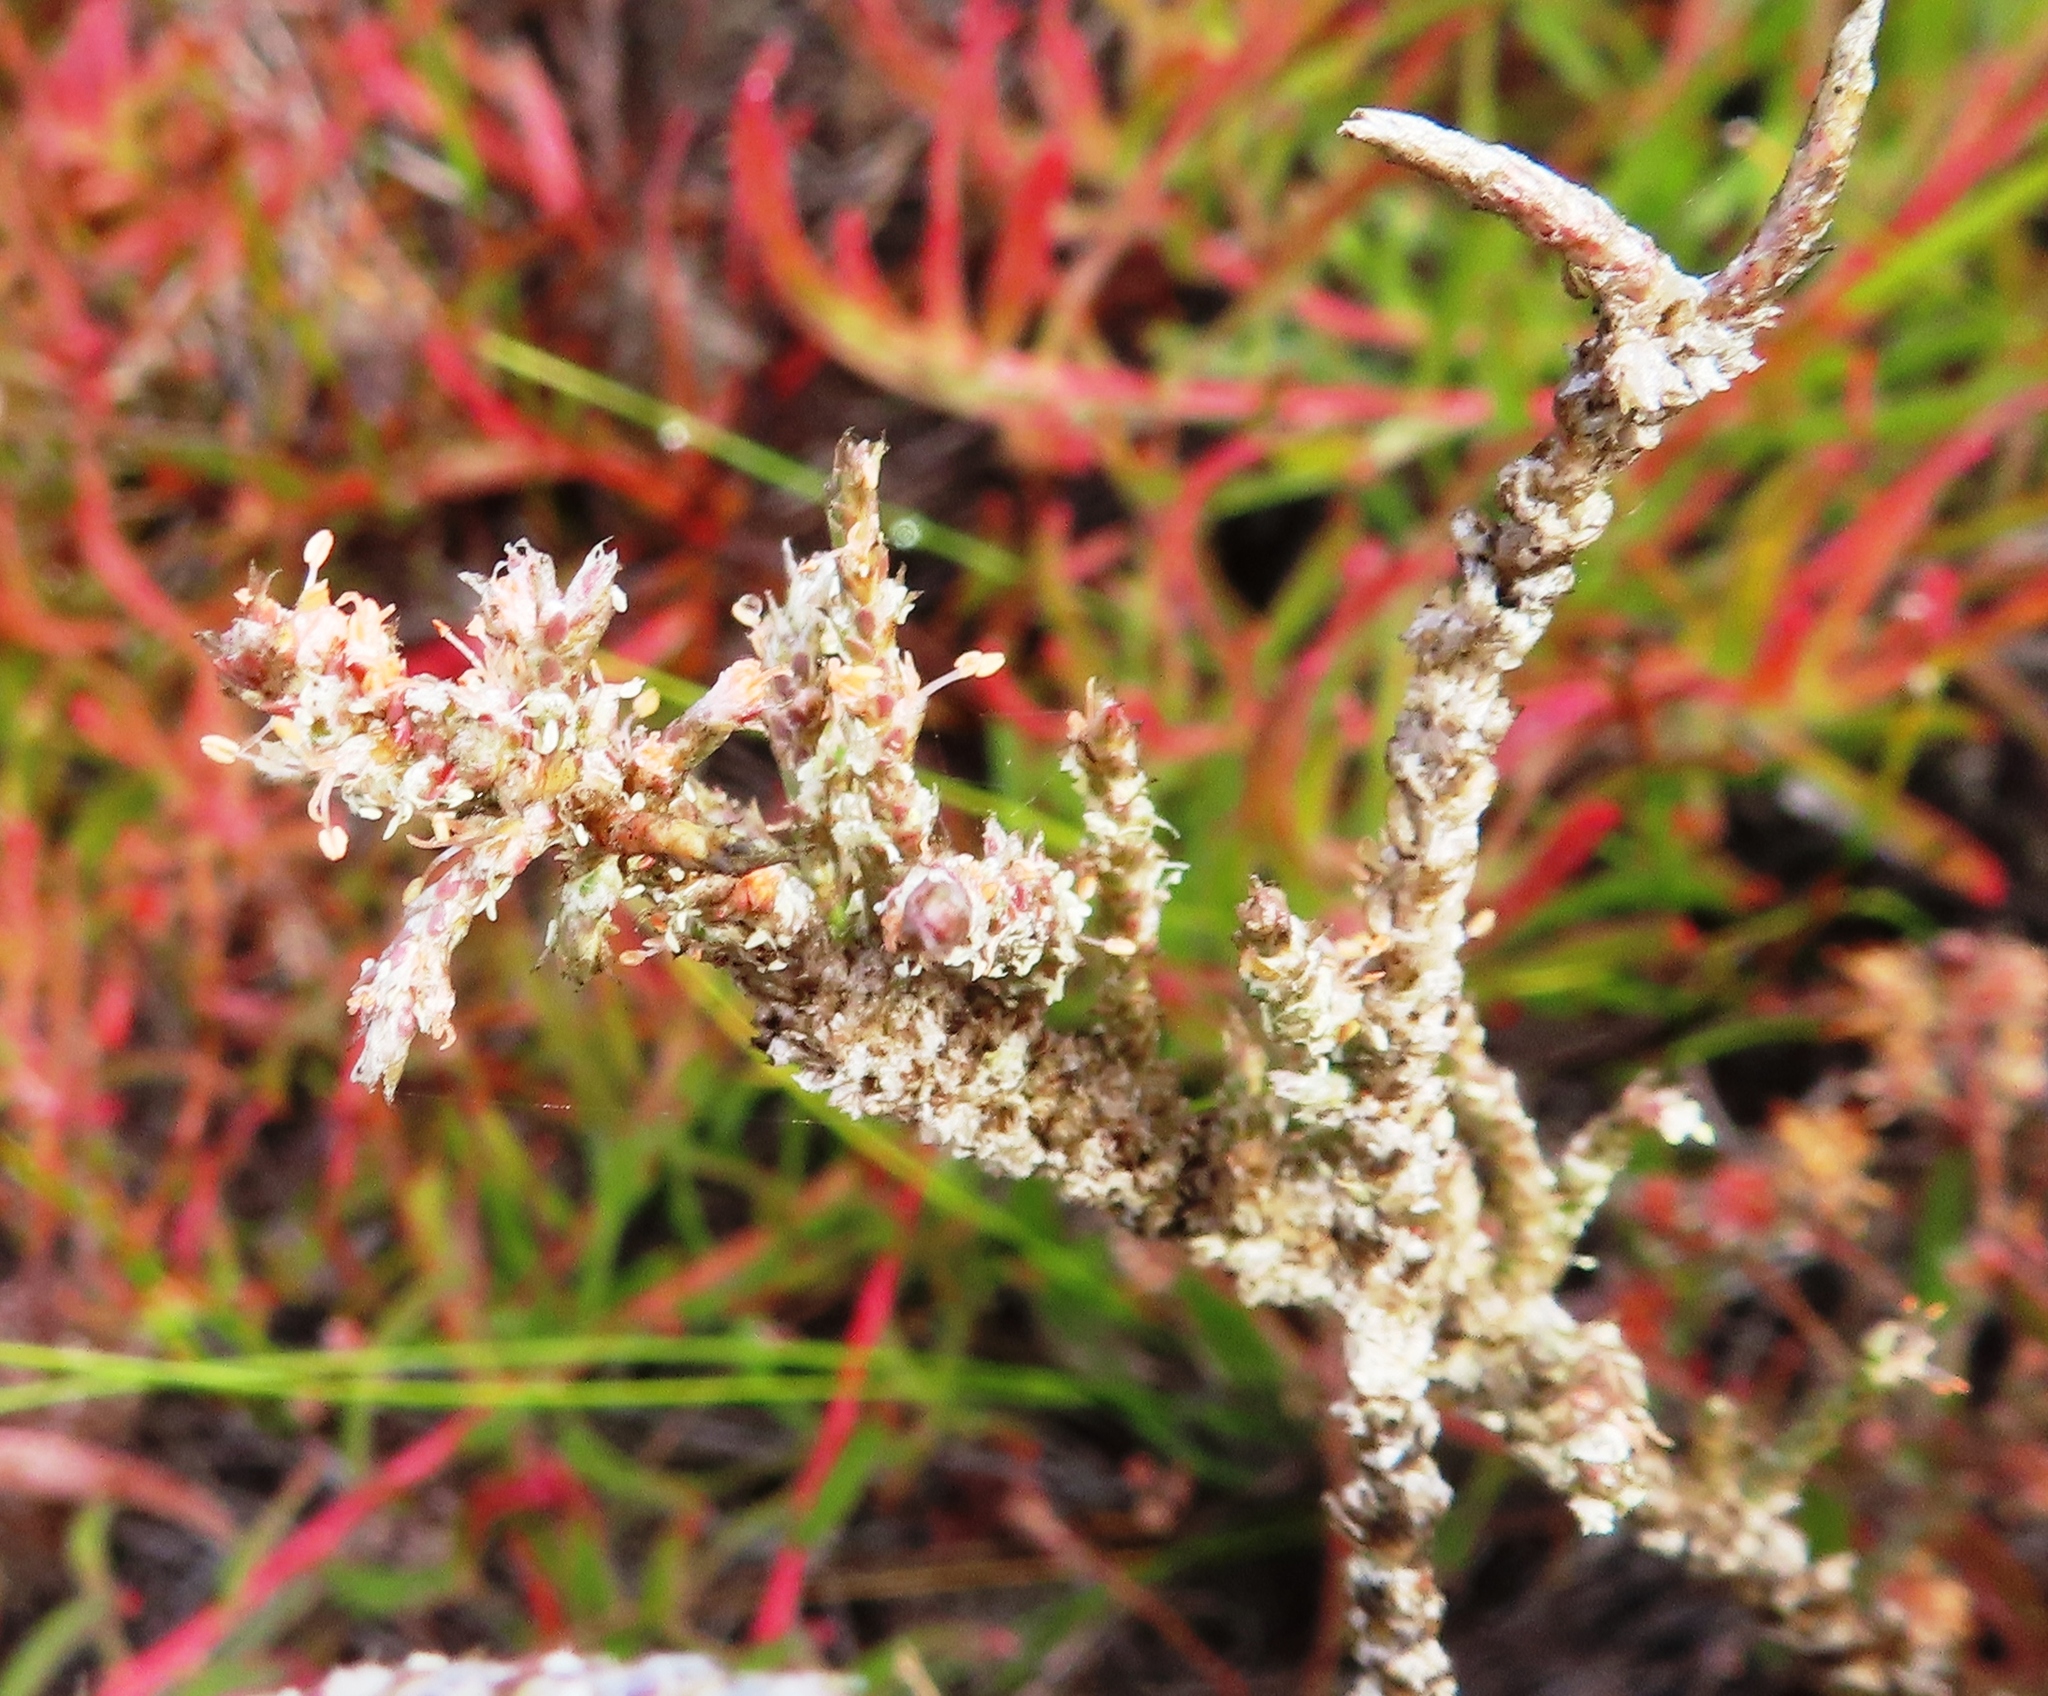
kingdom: Plantae
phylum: Tracheophyta
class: Magnoliopsida
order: Caryophyllales
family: Molluginaceae
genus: Polpoda
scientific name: Polpoda capensis
